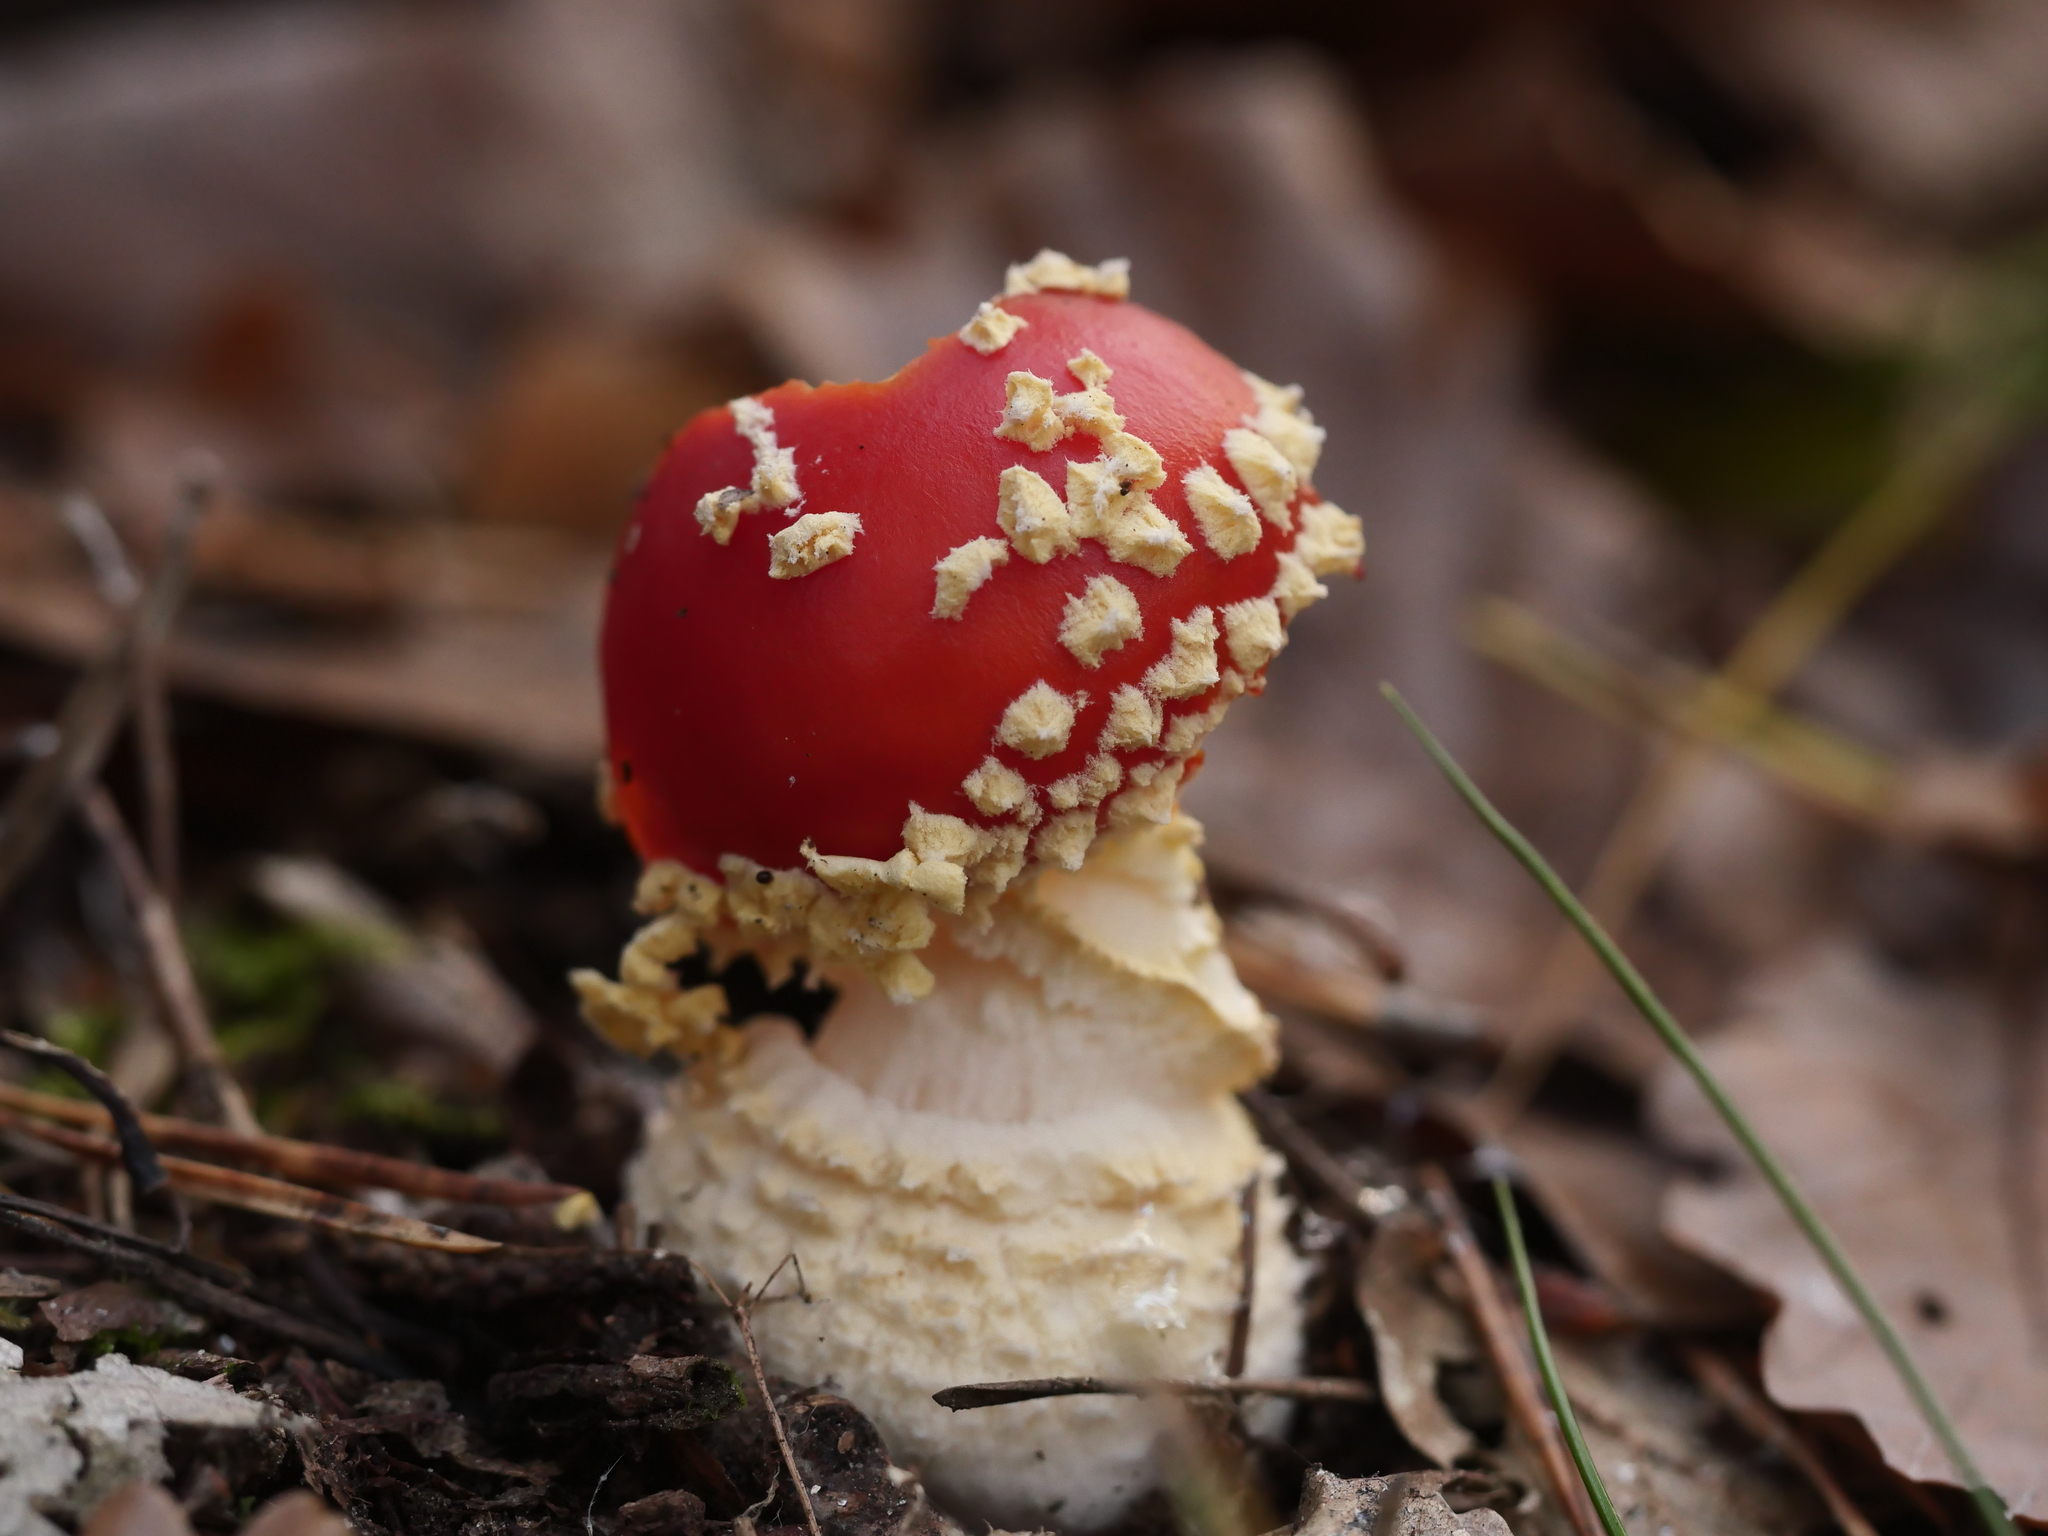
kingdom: Fungi
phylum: Basidiomycota
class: Agaricomycetes
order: Agaricales
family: Amanitaceae
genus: Amanita
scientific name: Amanita muscaria
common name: Fly agaric
